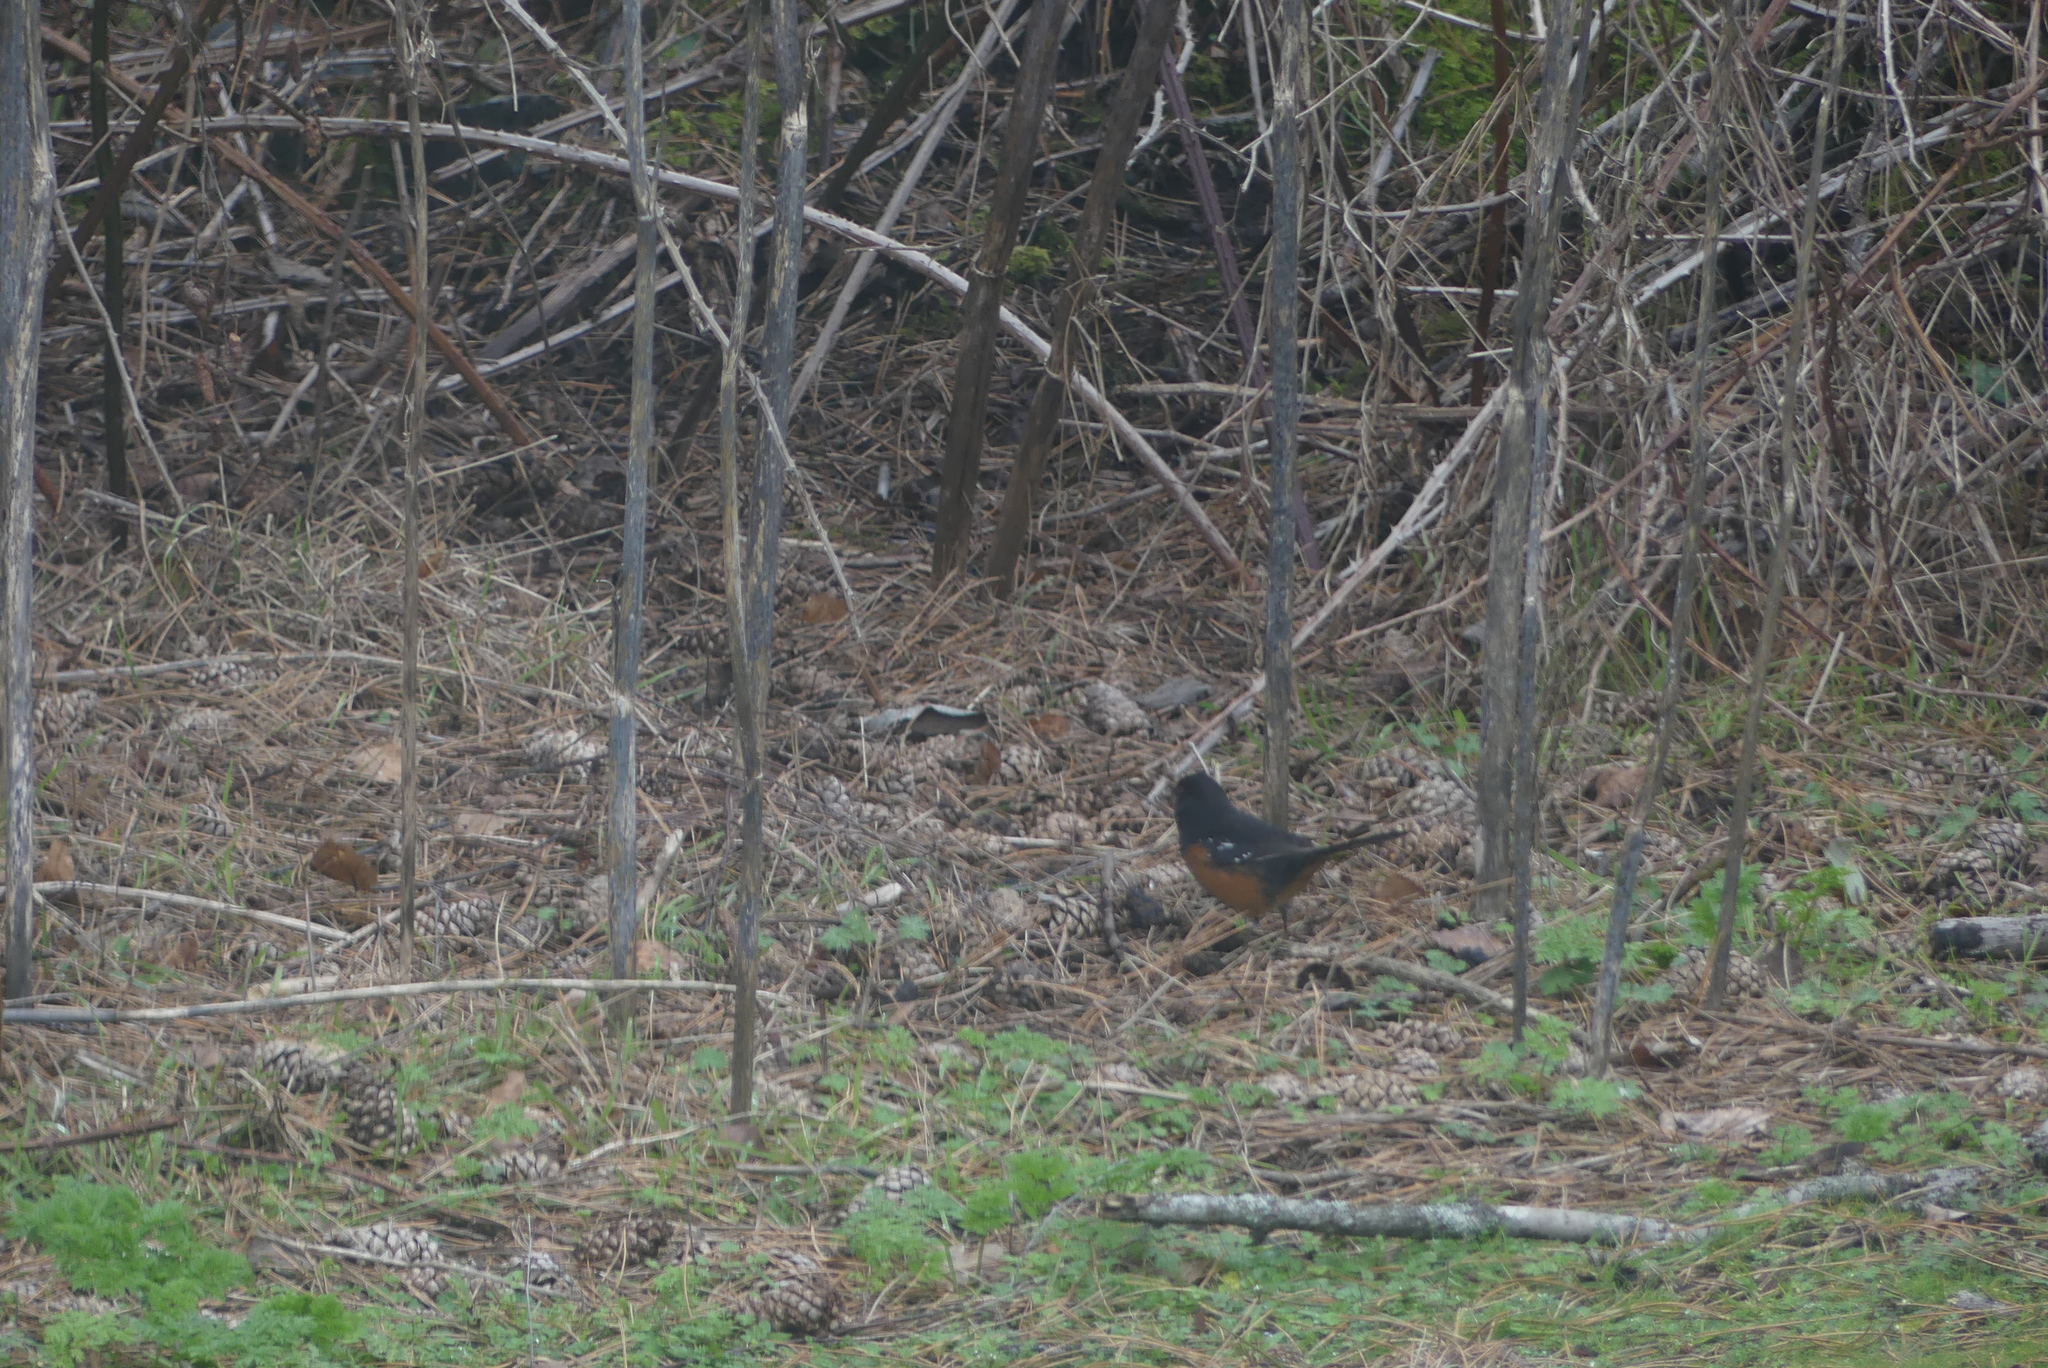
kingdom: Animalia
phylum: Chordata
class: Aves
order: Passeriformes
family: Passerellidae
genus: Pipilo
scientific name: Pipilo maculatus
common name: Spotted towhee
